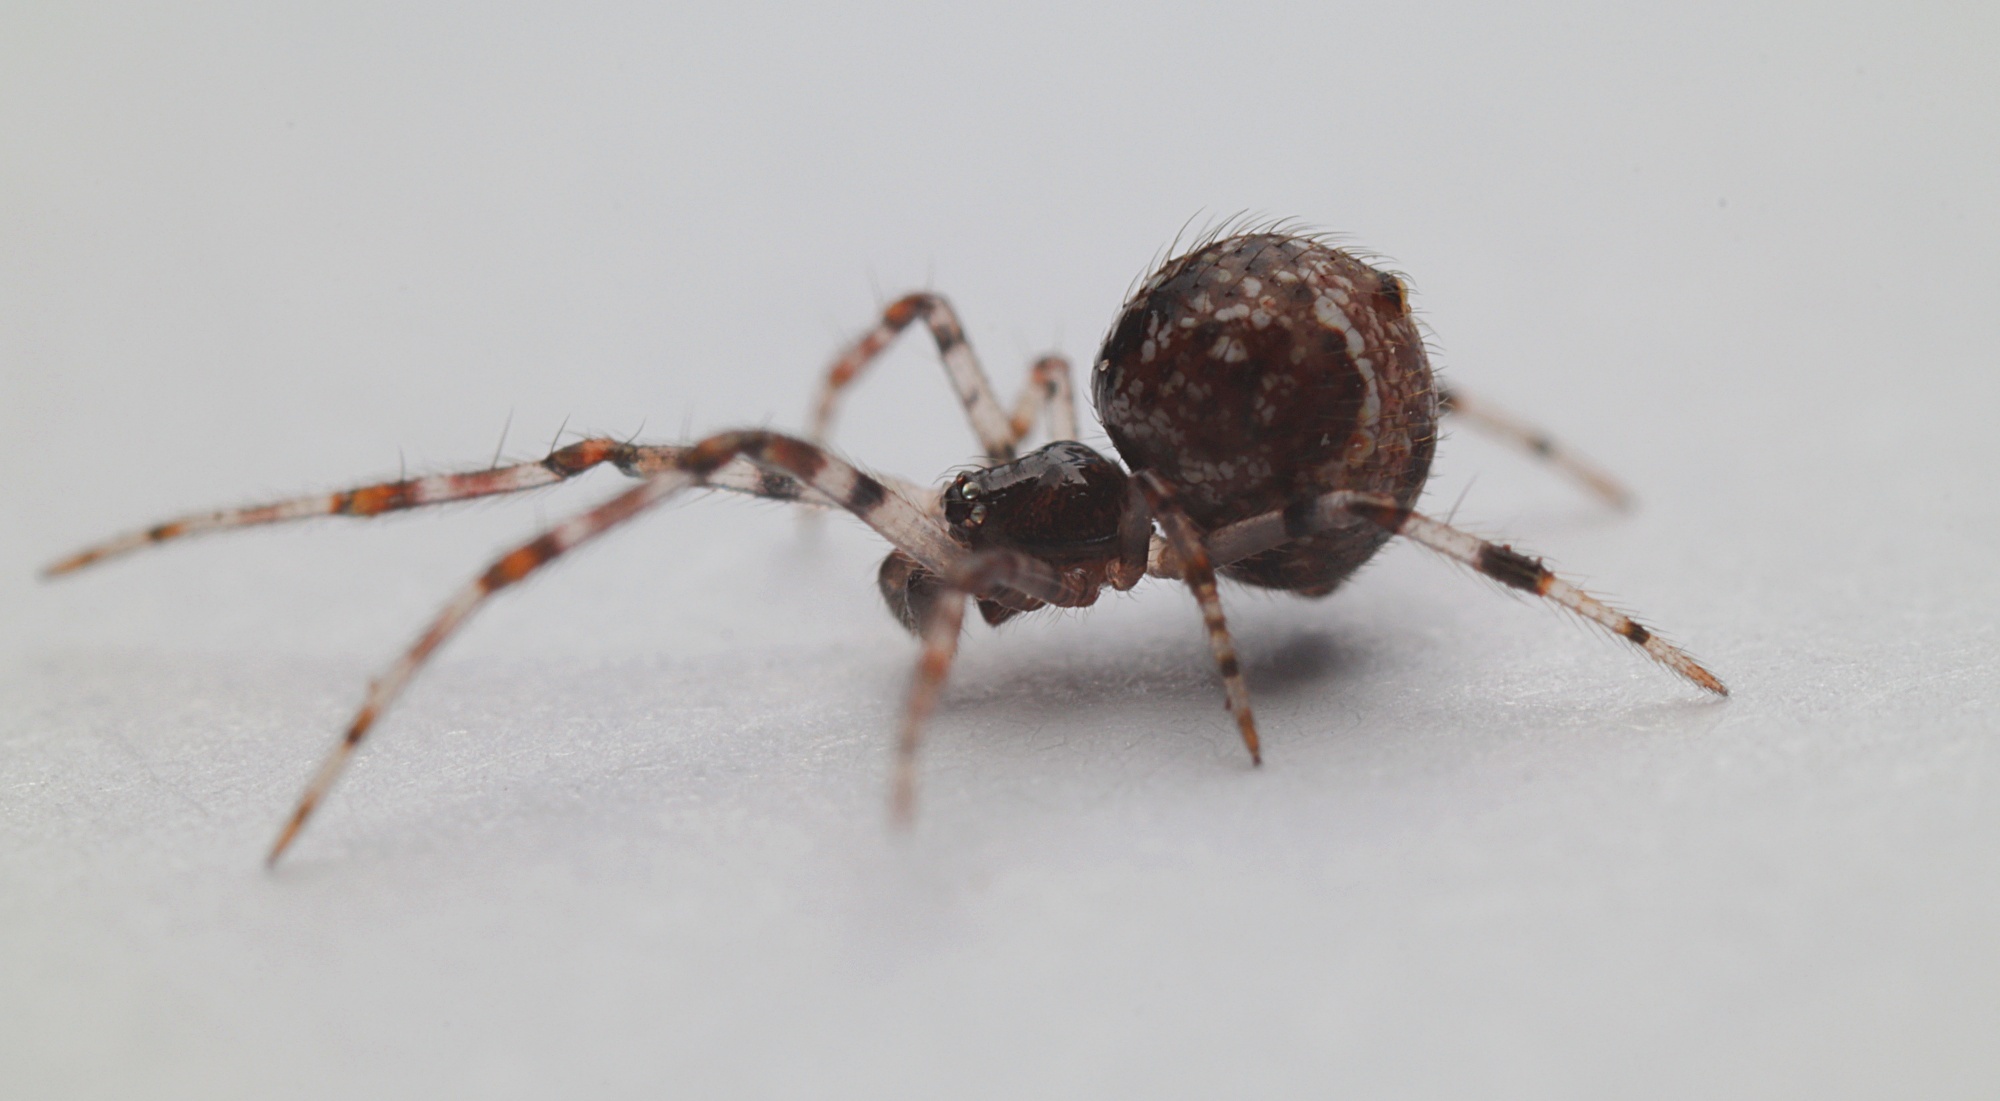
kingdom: Animalia
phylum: Arthropoda
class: Arachnida
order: Araneae
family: Theridiidae
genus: Cryptachaea
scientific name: Cryptachaea blattea
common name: Theridiid spider
